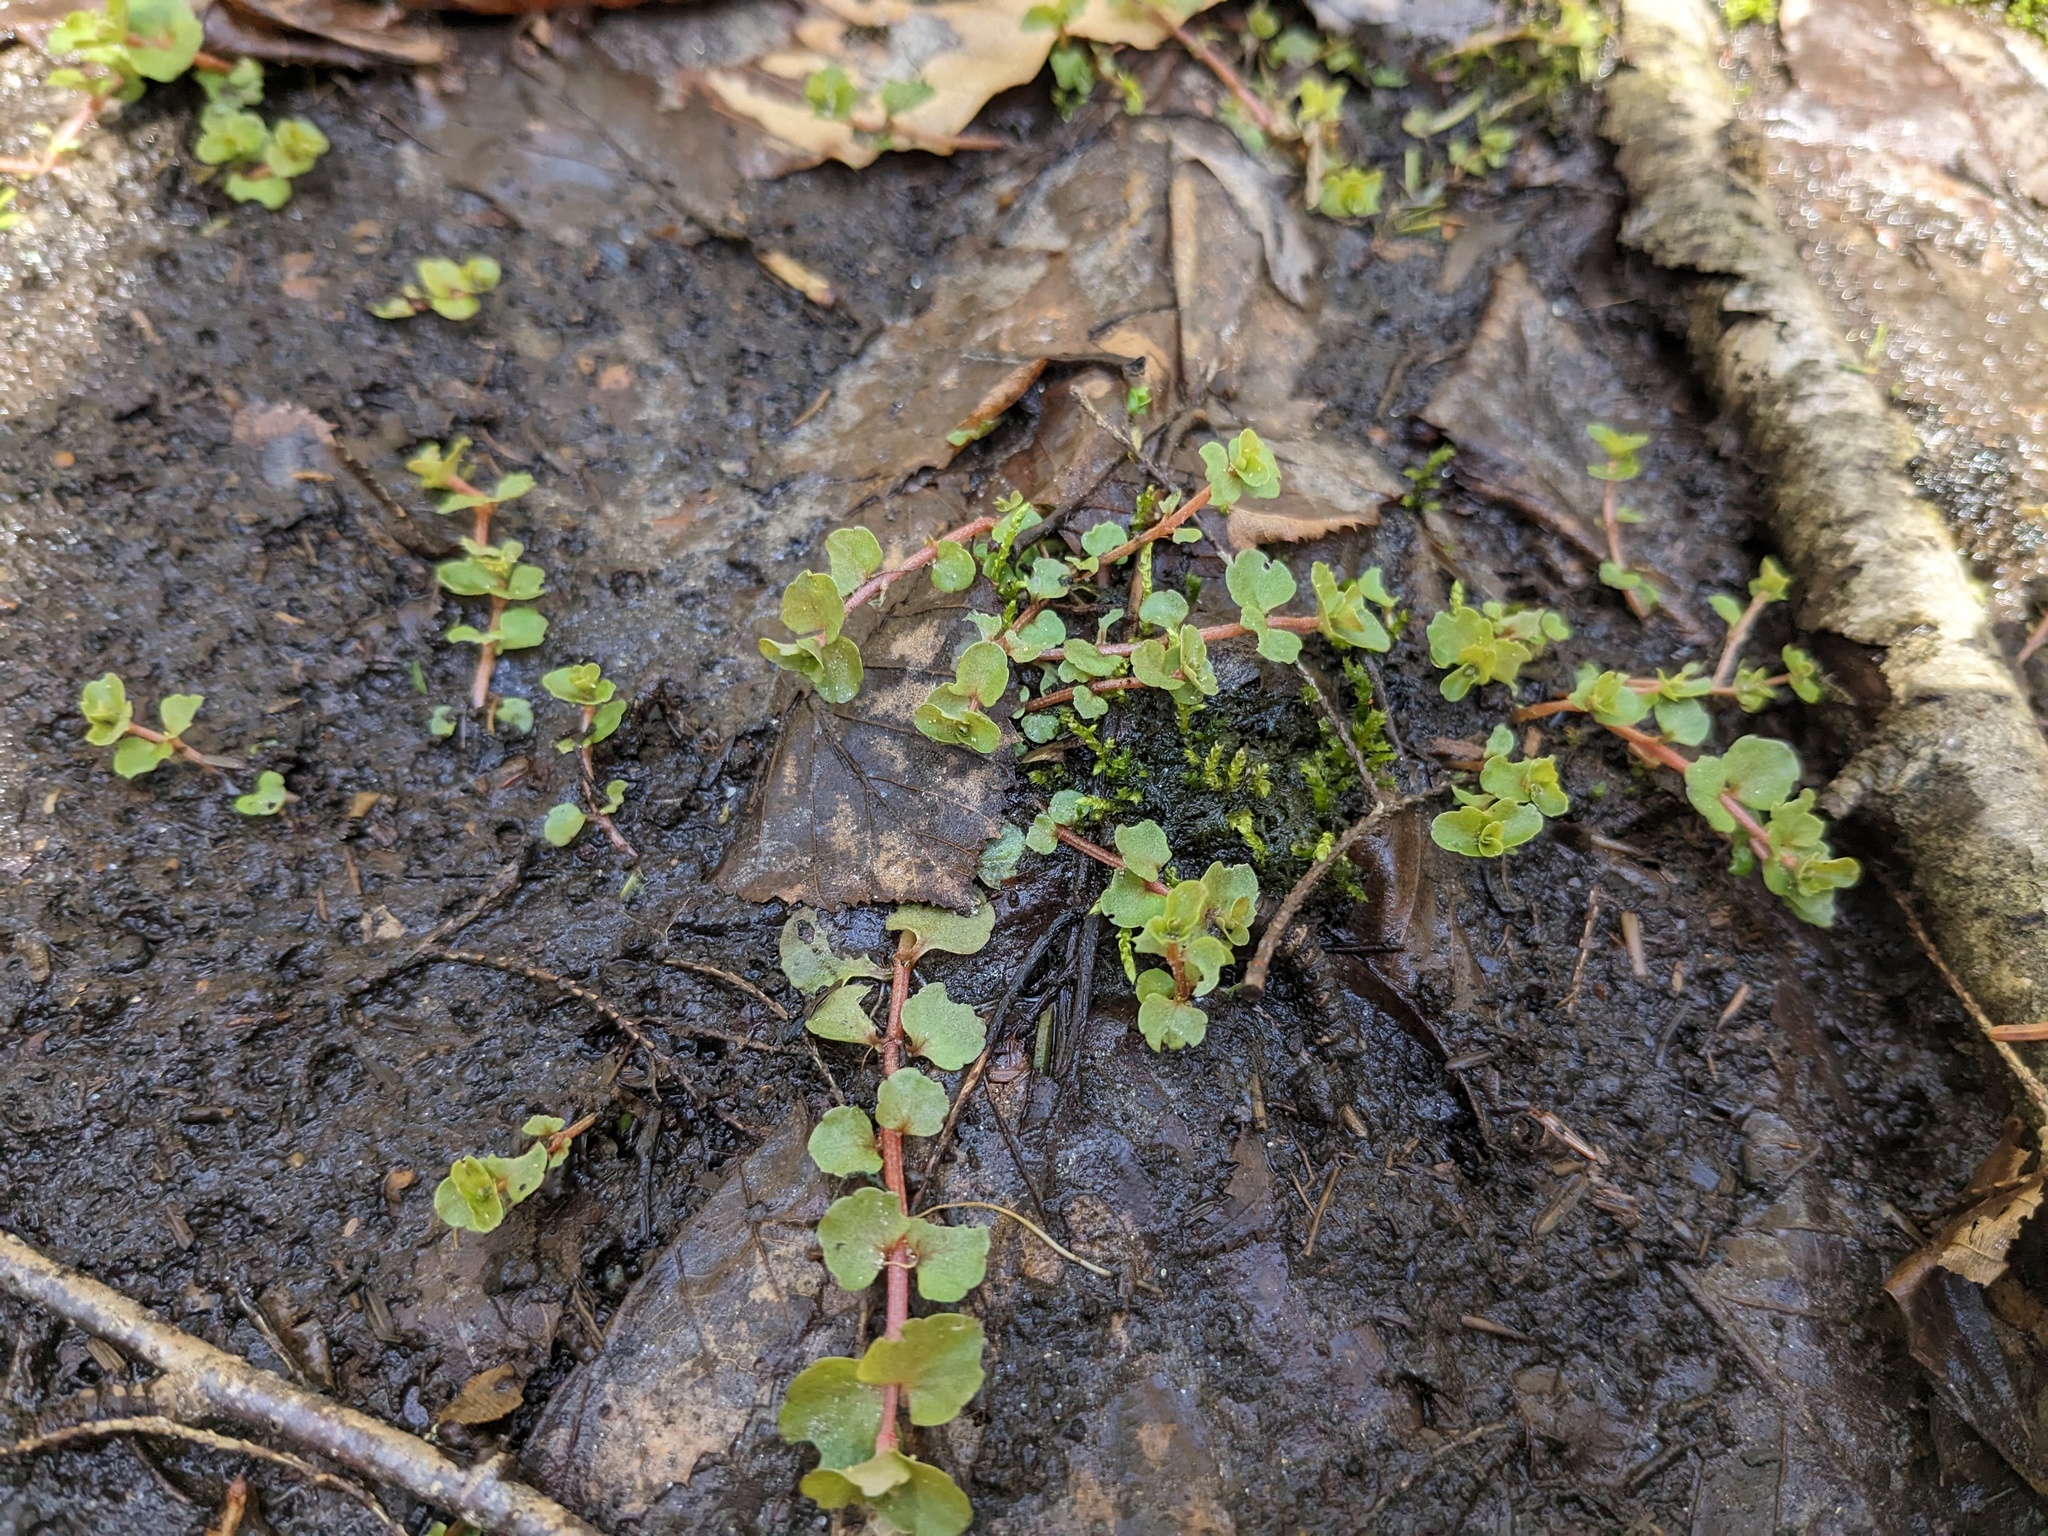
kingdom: Plantae
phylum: Tracheophyta
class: Magnoliopsida
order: Saxifragales
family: Saxifragaceae
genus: Chrysosplenium
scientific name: Chrysosplenium americanum
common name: American golden-saxifrage
